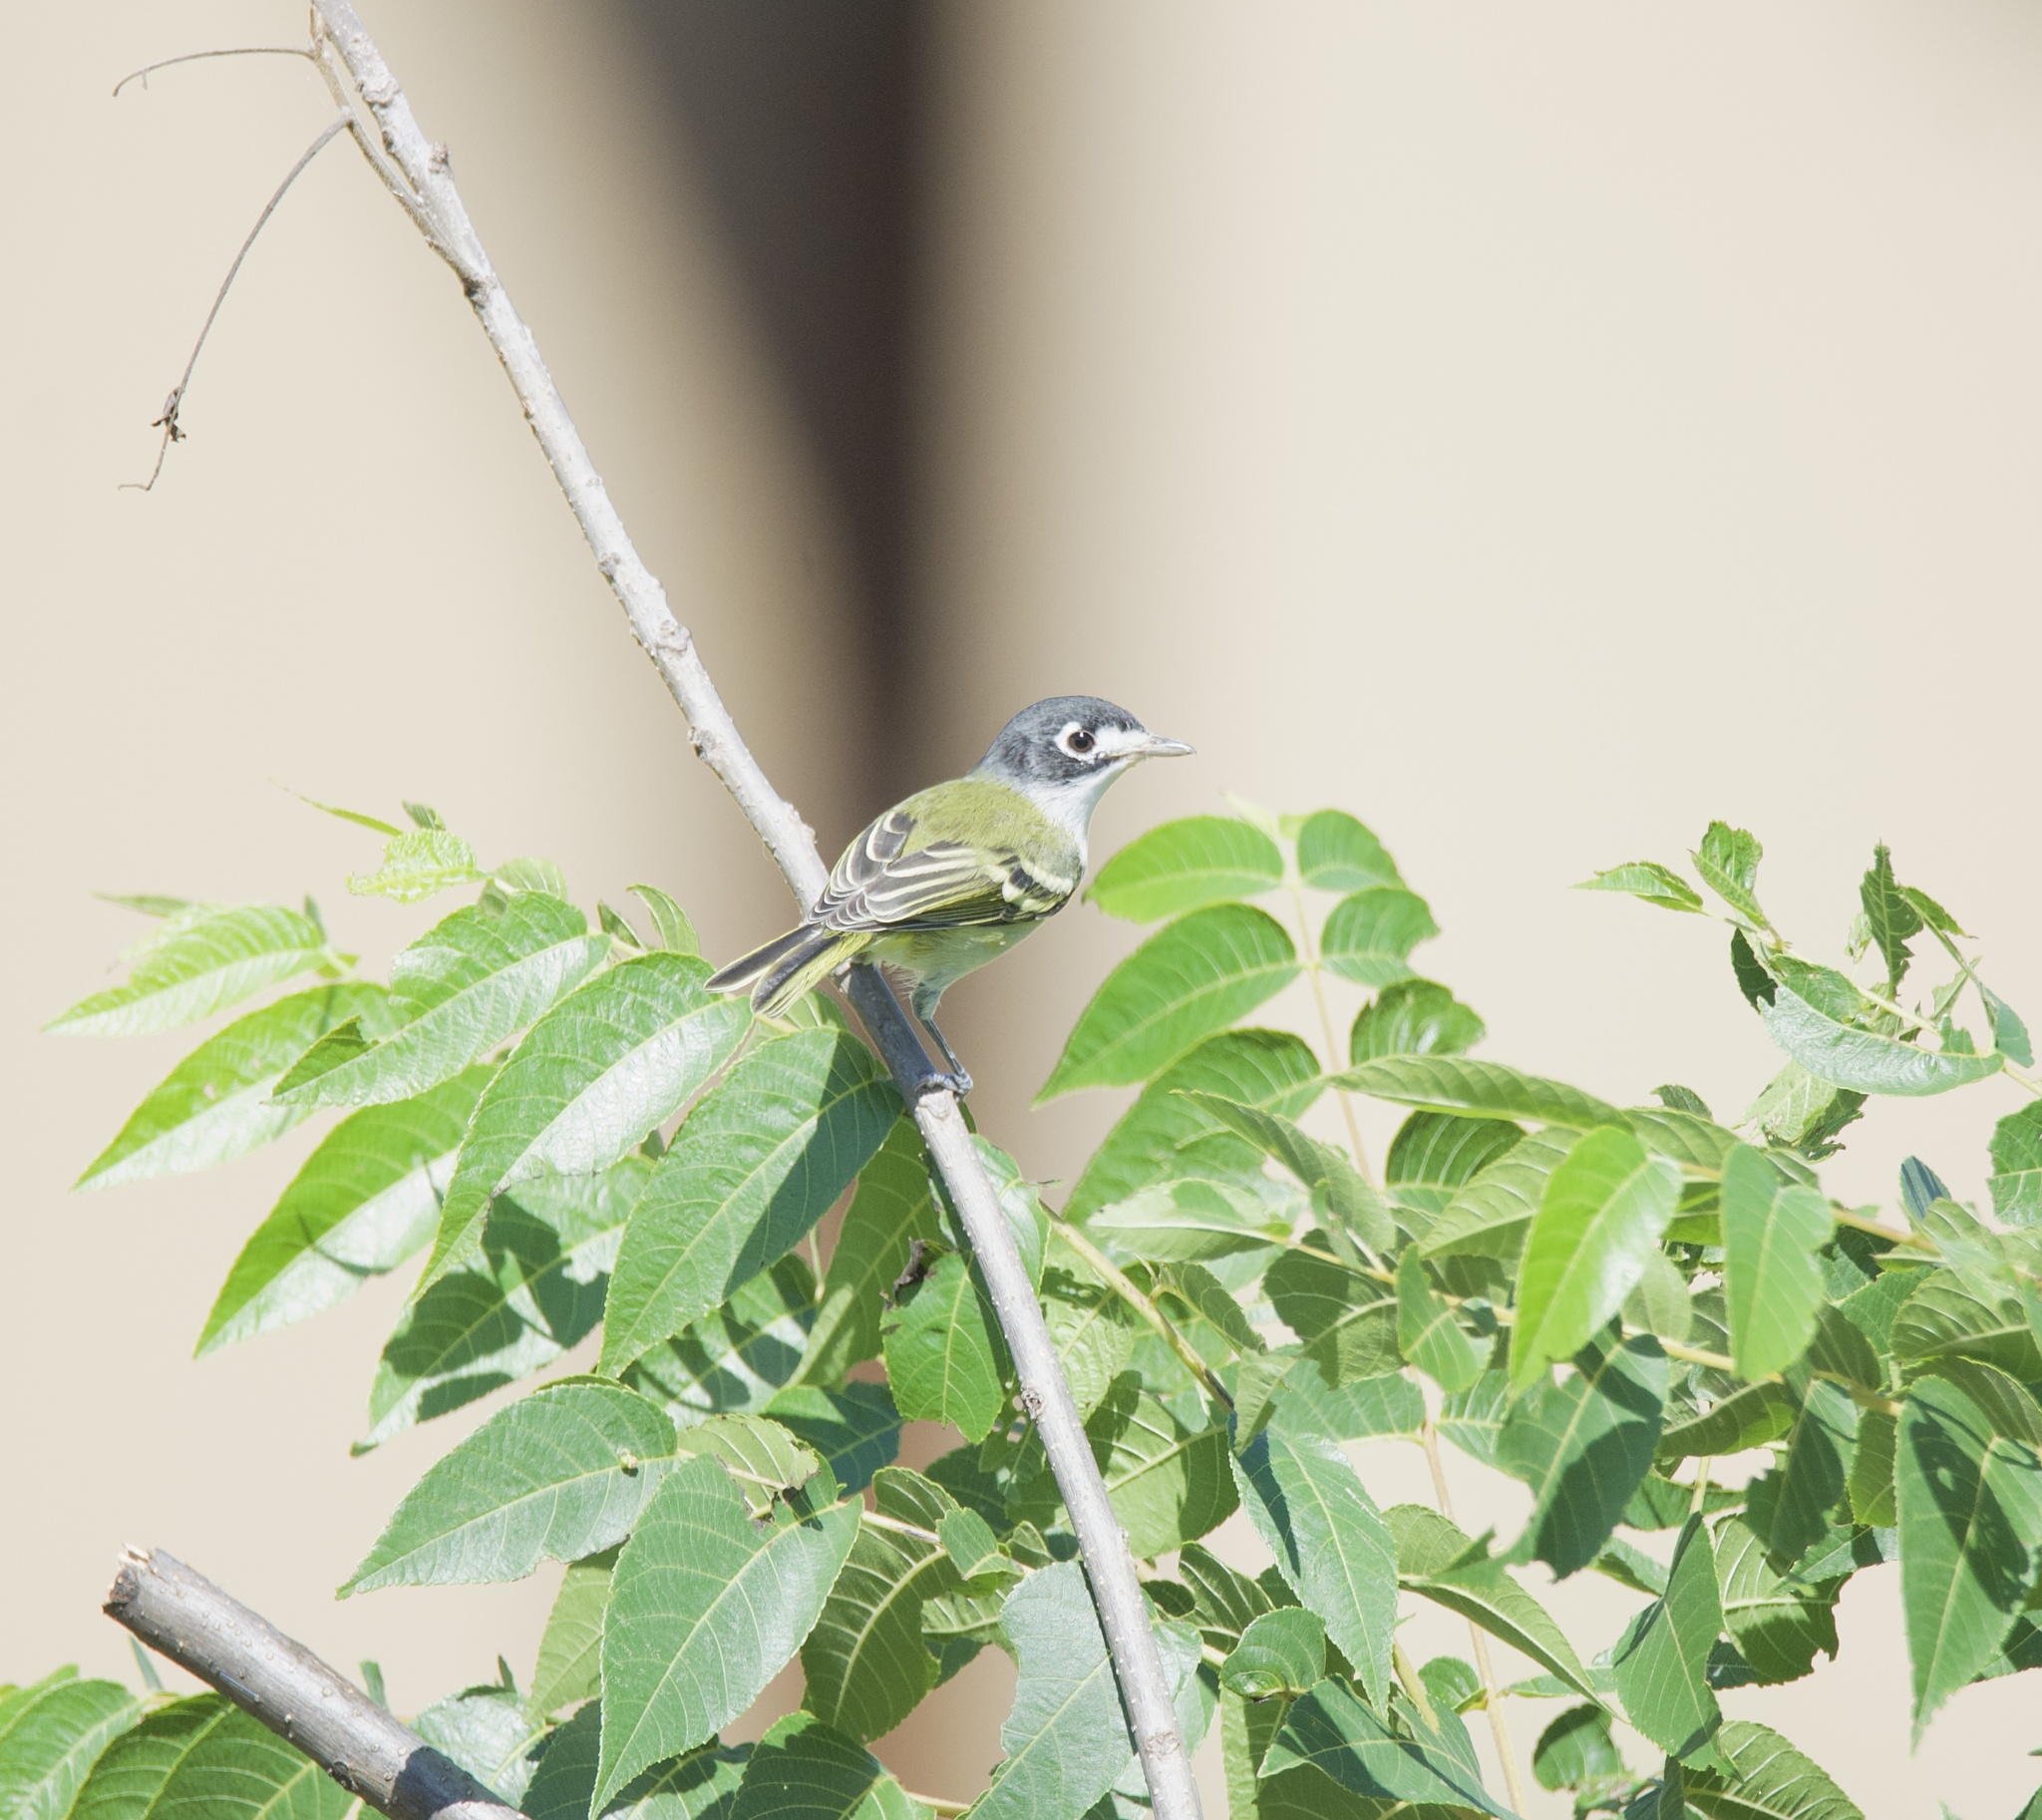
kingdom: Animalia
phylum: Chordata
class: Aves
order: Passeriformes
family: Vireonidae
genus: Vireo
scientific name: Vireo atricapilla
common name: Black-capped vireo
